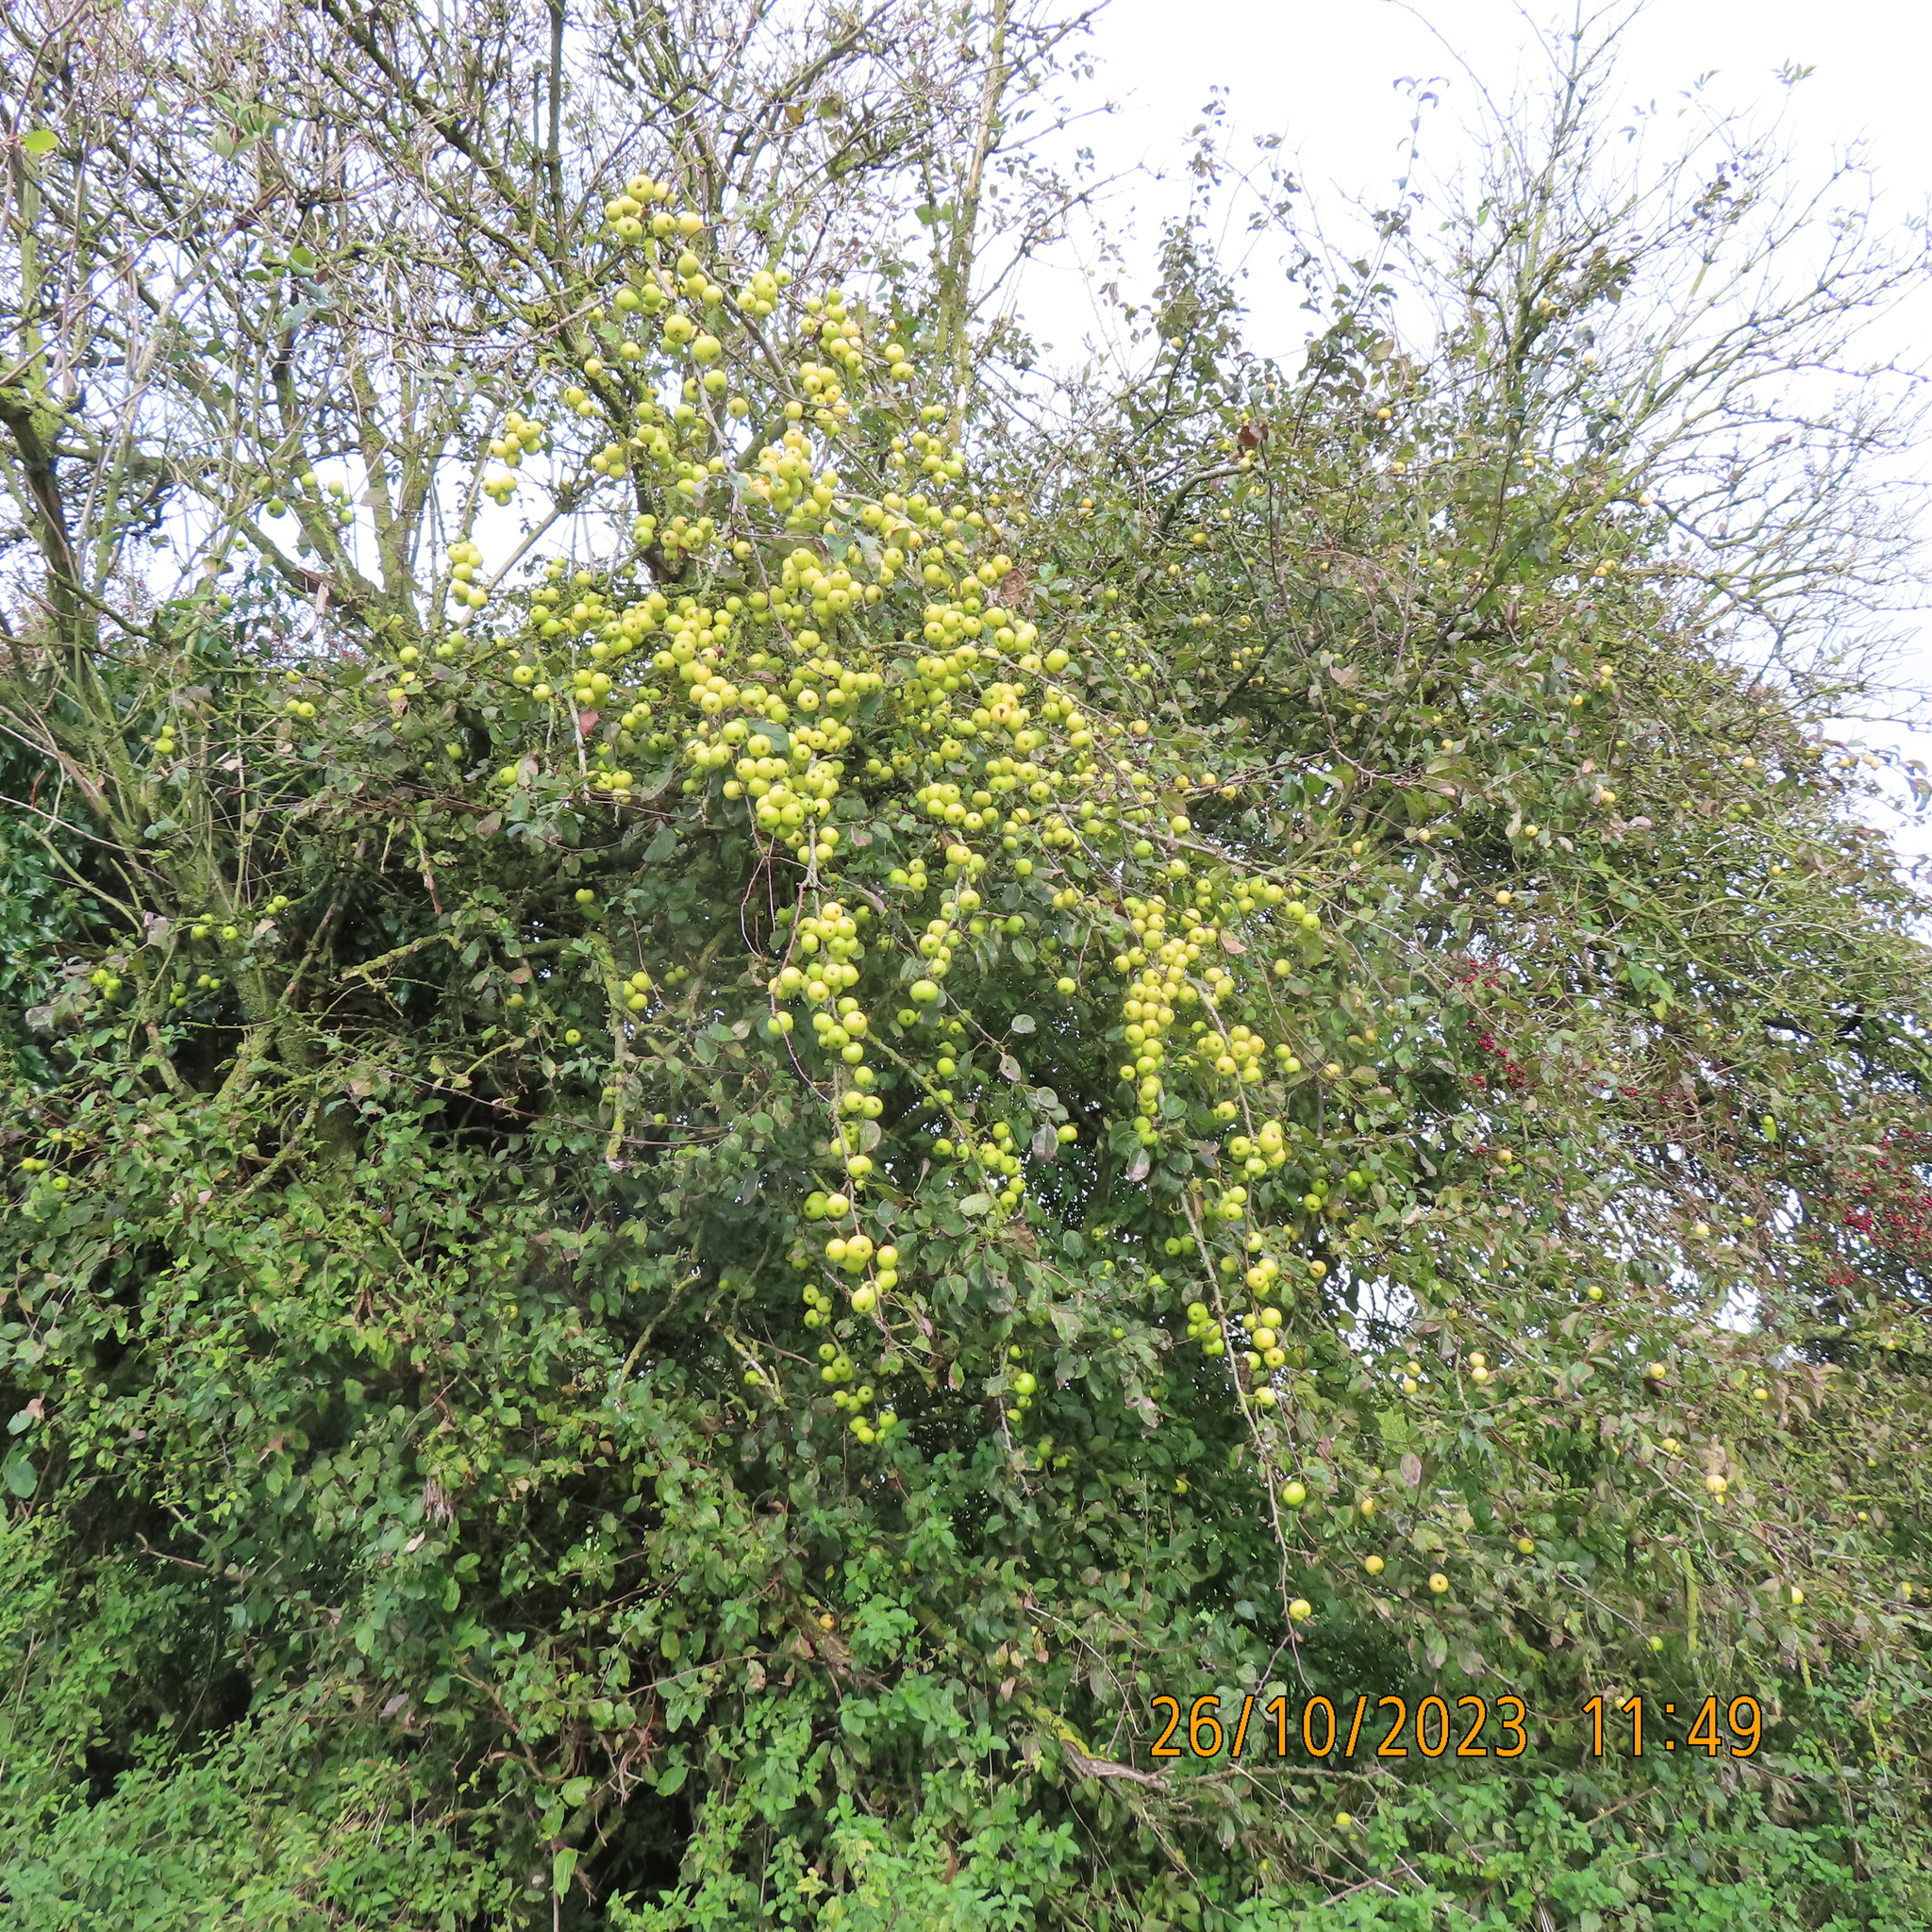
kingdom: Plantae
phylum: Tracheophyta
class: Magnoliopsida
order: Rosales
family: Rosaceae
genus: Malus
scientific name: Malus sylvestris
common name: Crab apple
